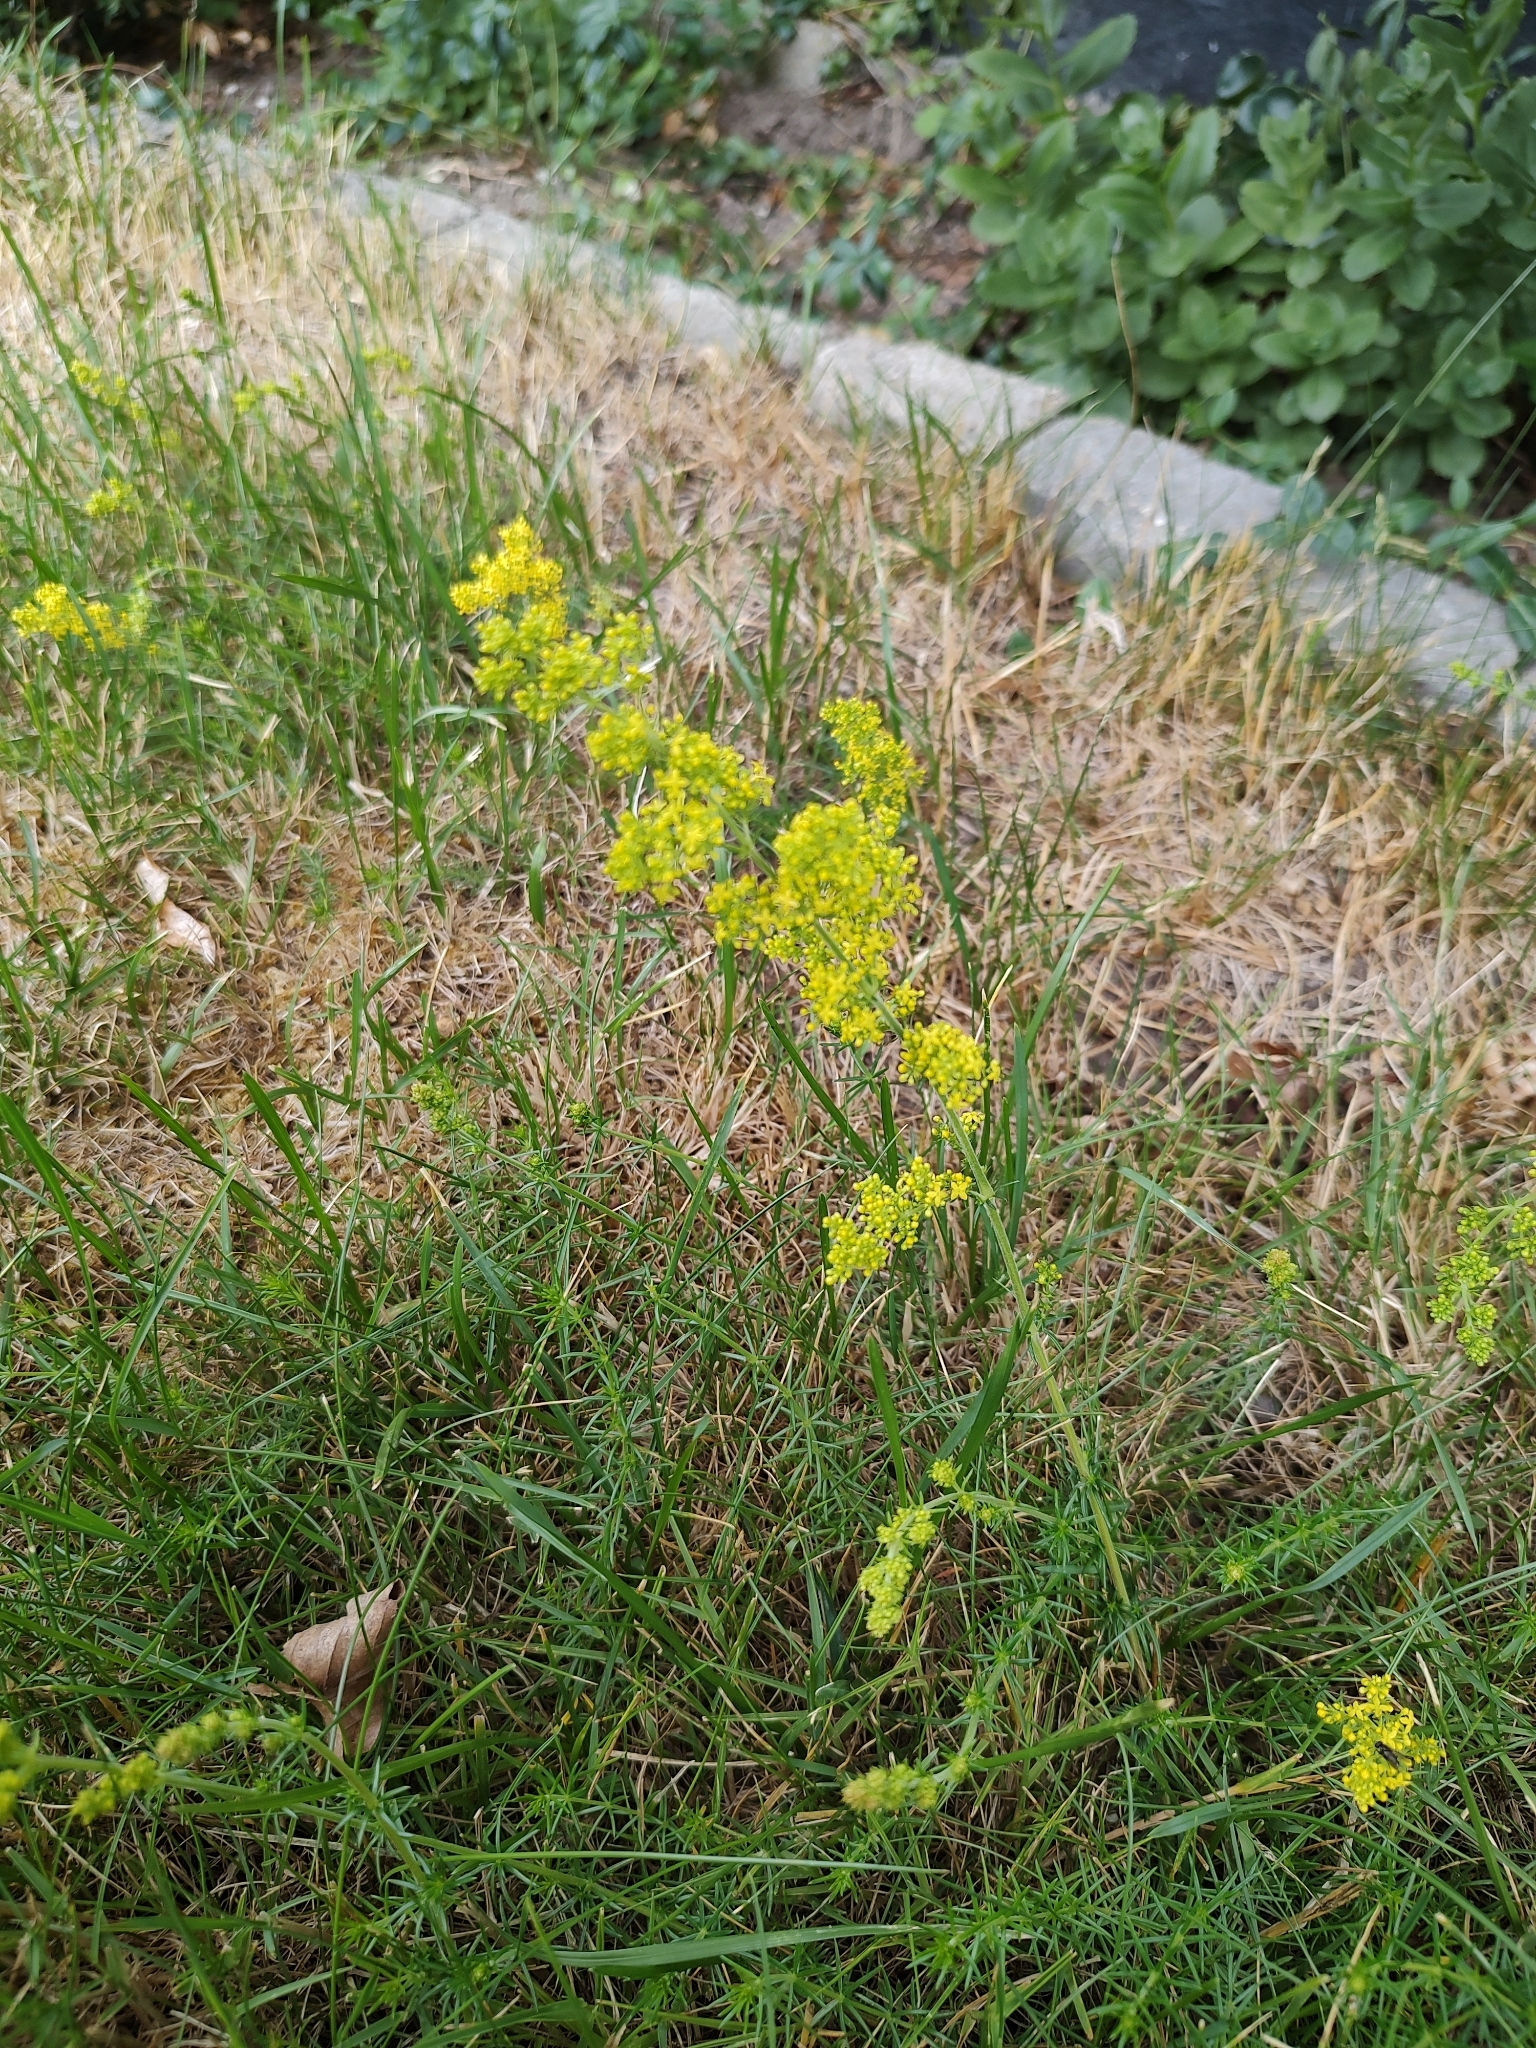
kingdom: Plantae
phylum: Tracheophyta
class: Magnoliopsida
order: Gentianales
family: Rubiaceae
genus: Galium
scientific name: Galium verum
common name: Lady's bedstraw
